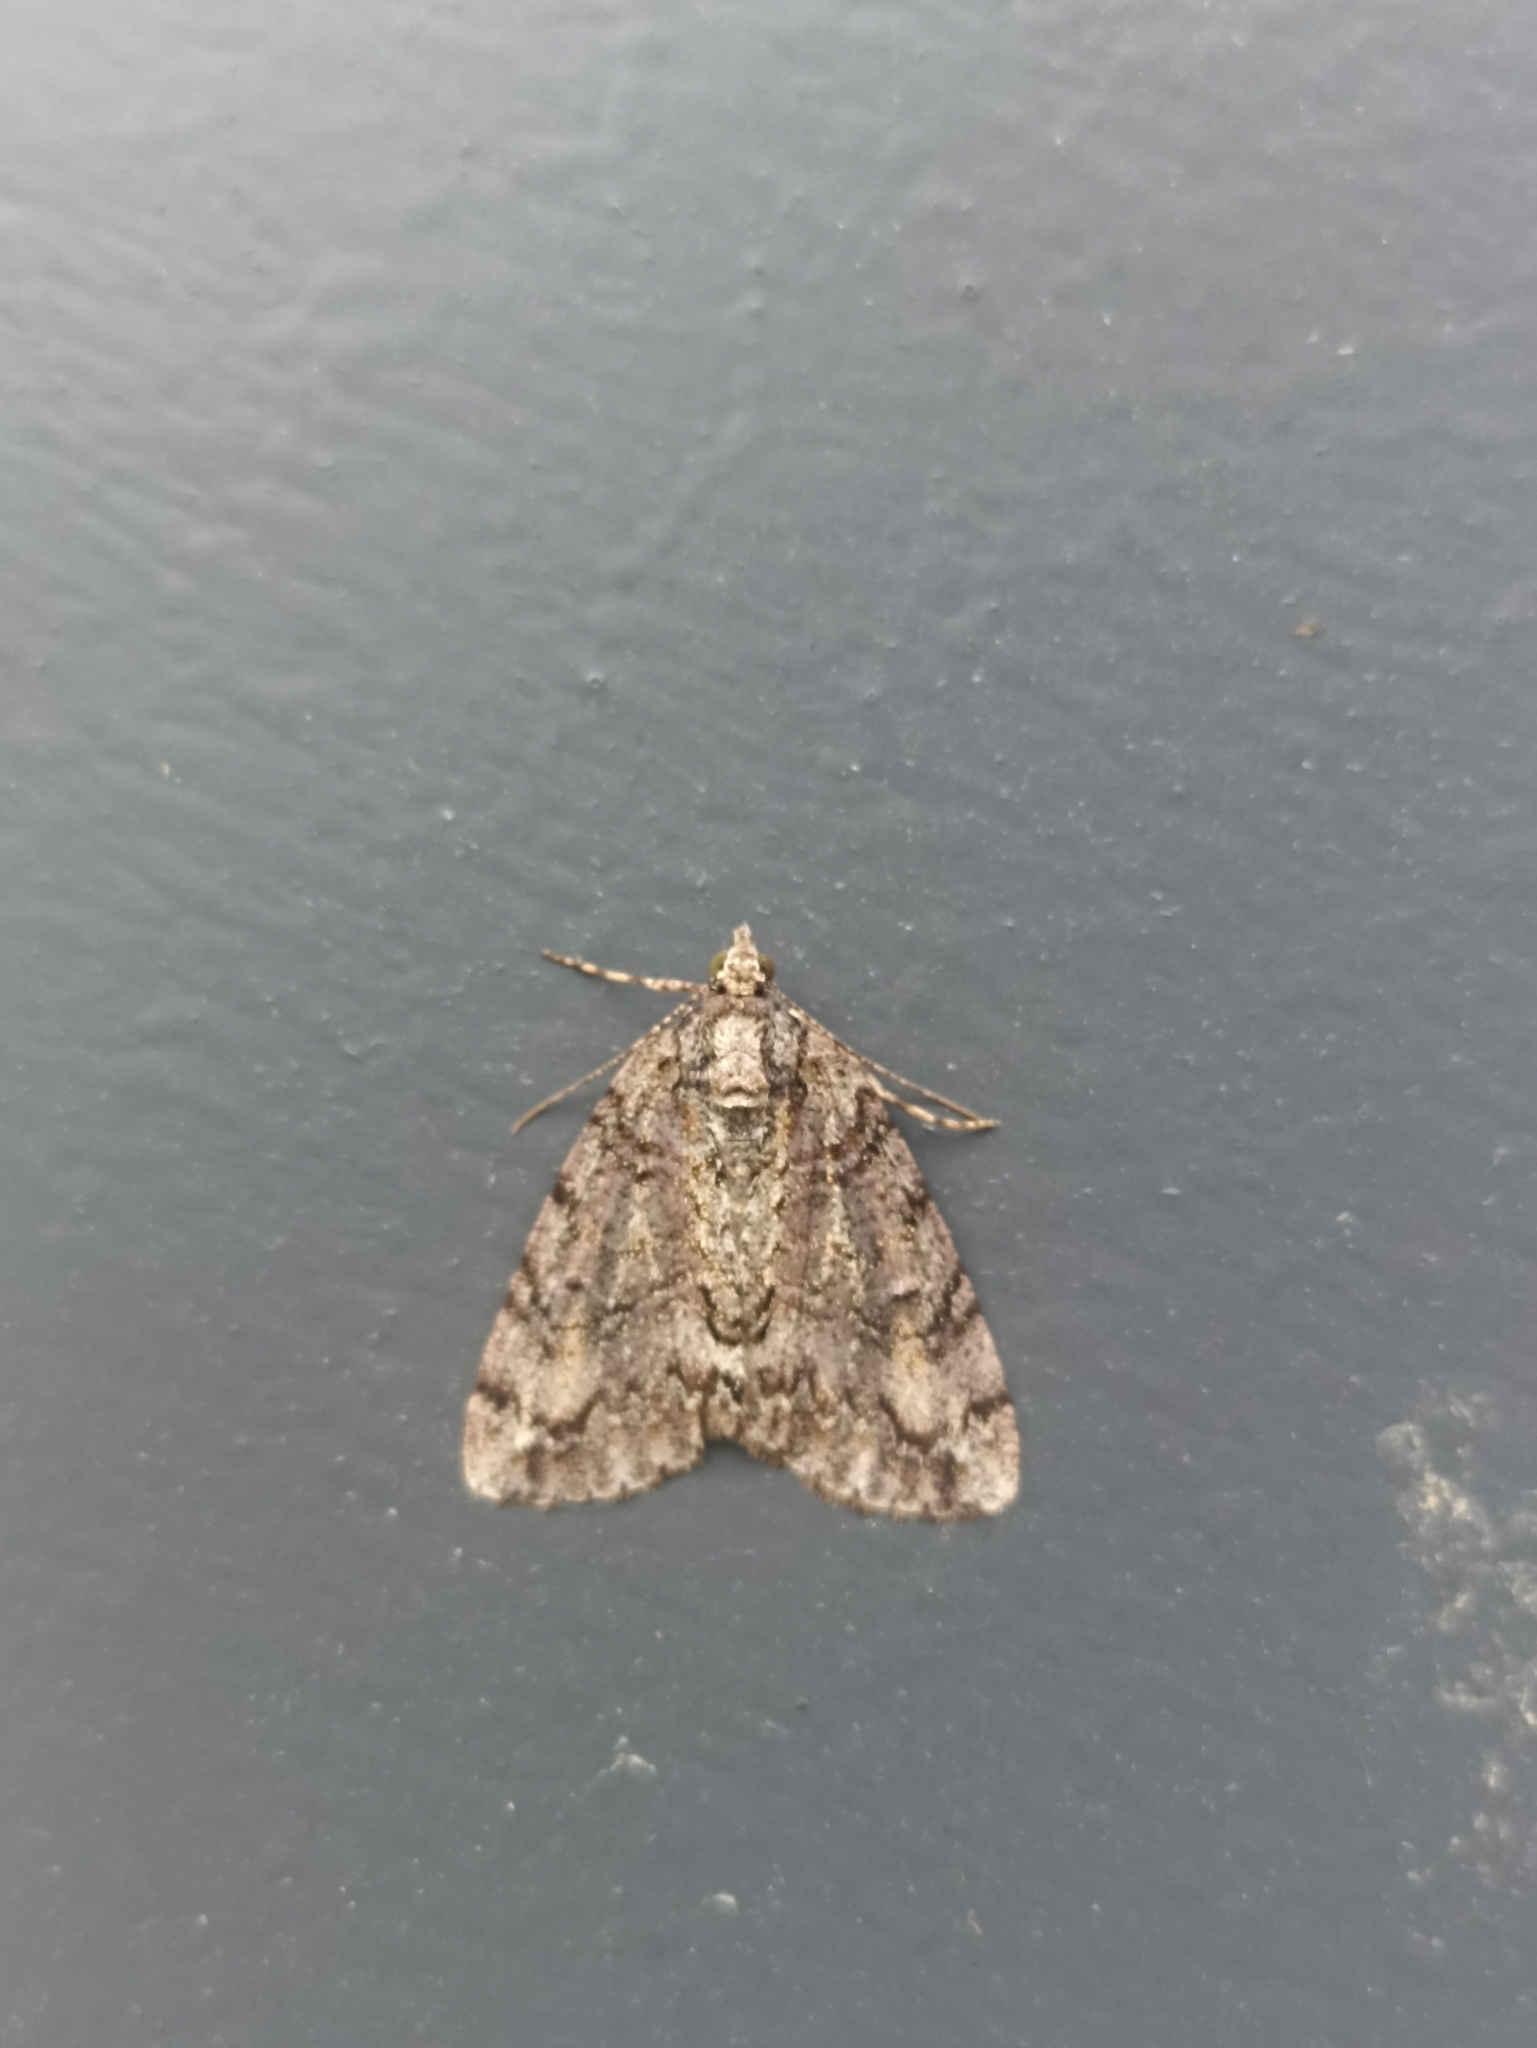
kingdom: Animalia
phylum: Arthropoda
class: Insecta
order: Lepidoptera
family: Geometridae
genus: Pseudocoremia
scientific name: Pseudocoremia suavis
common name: Common forest looper
